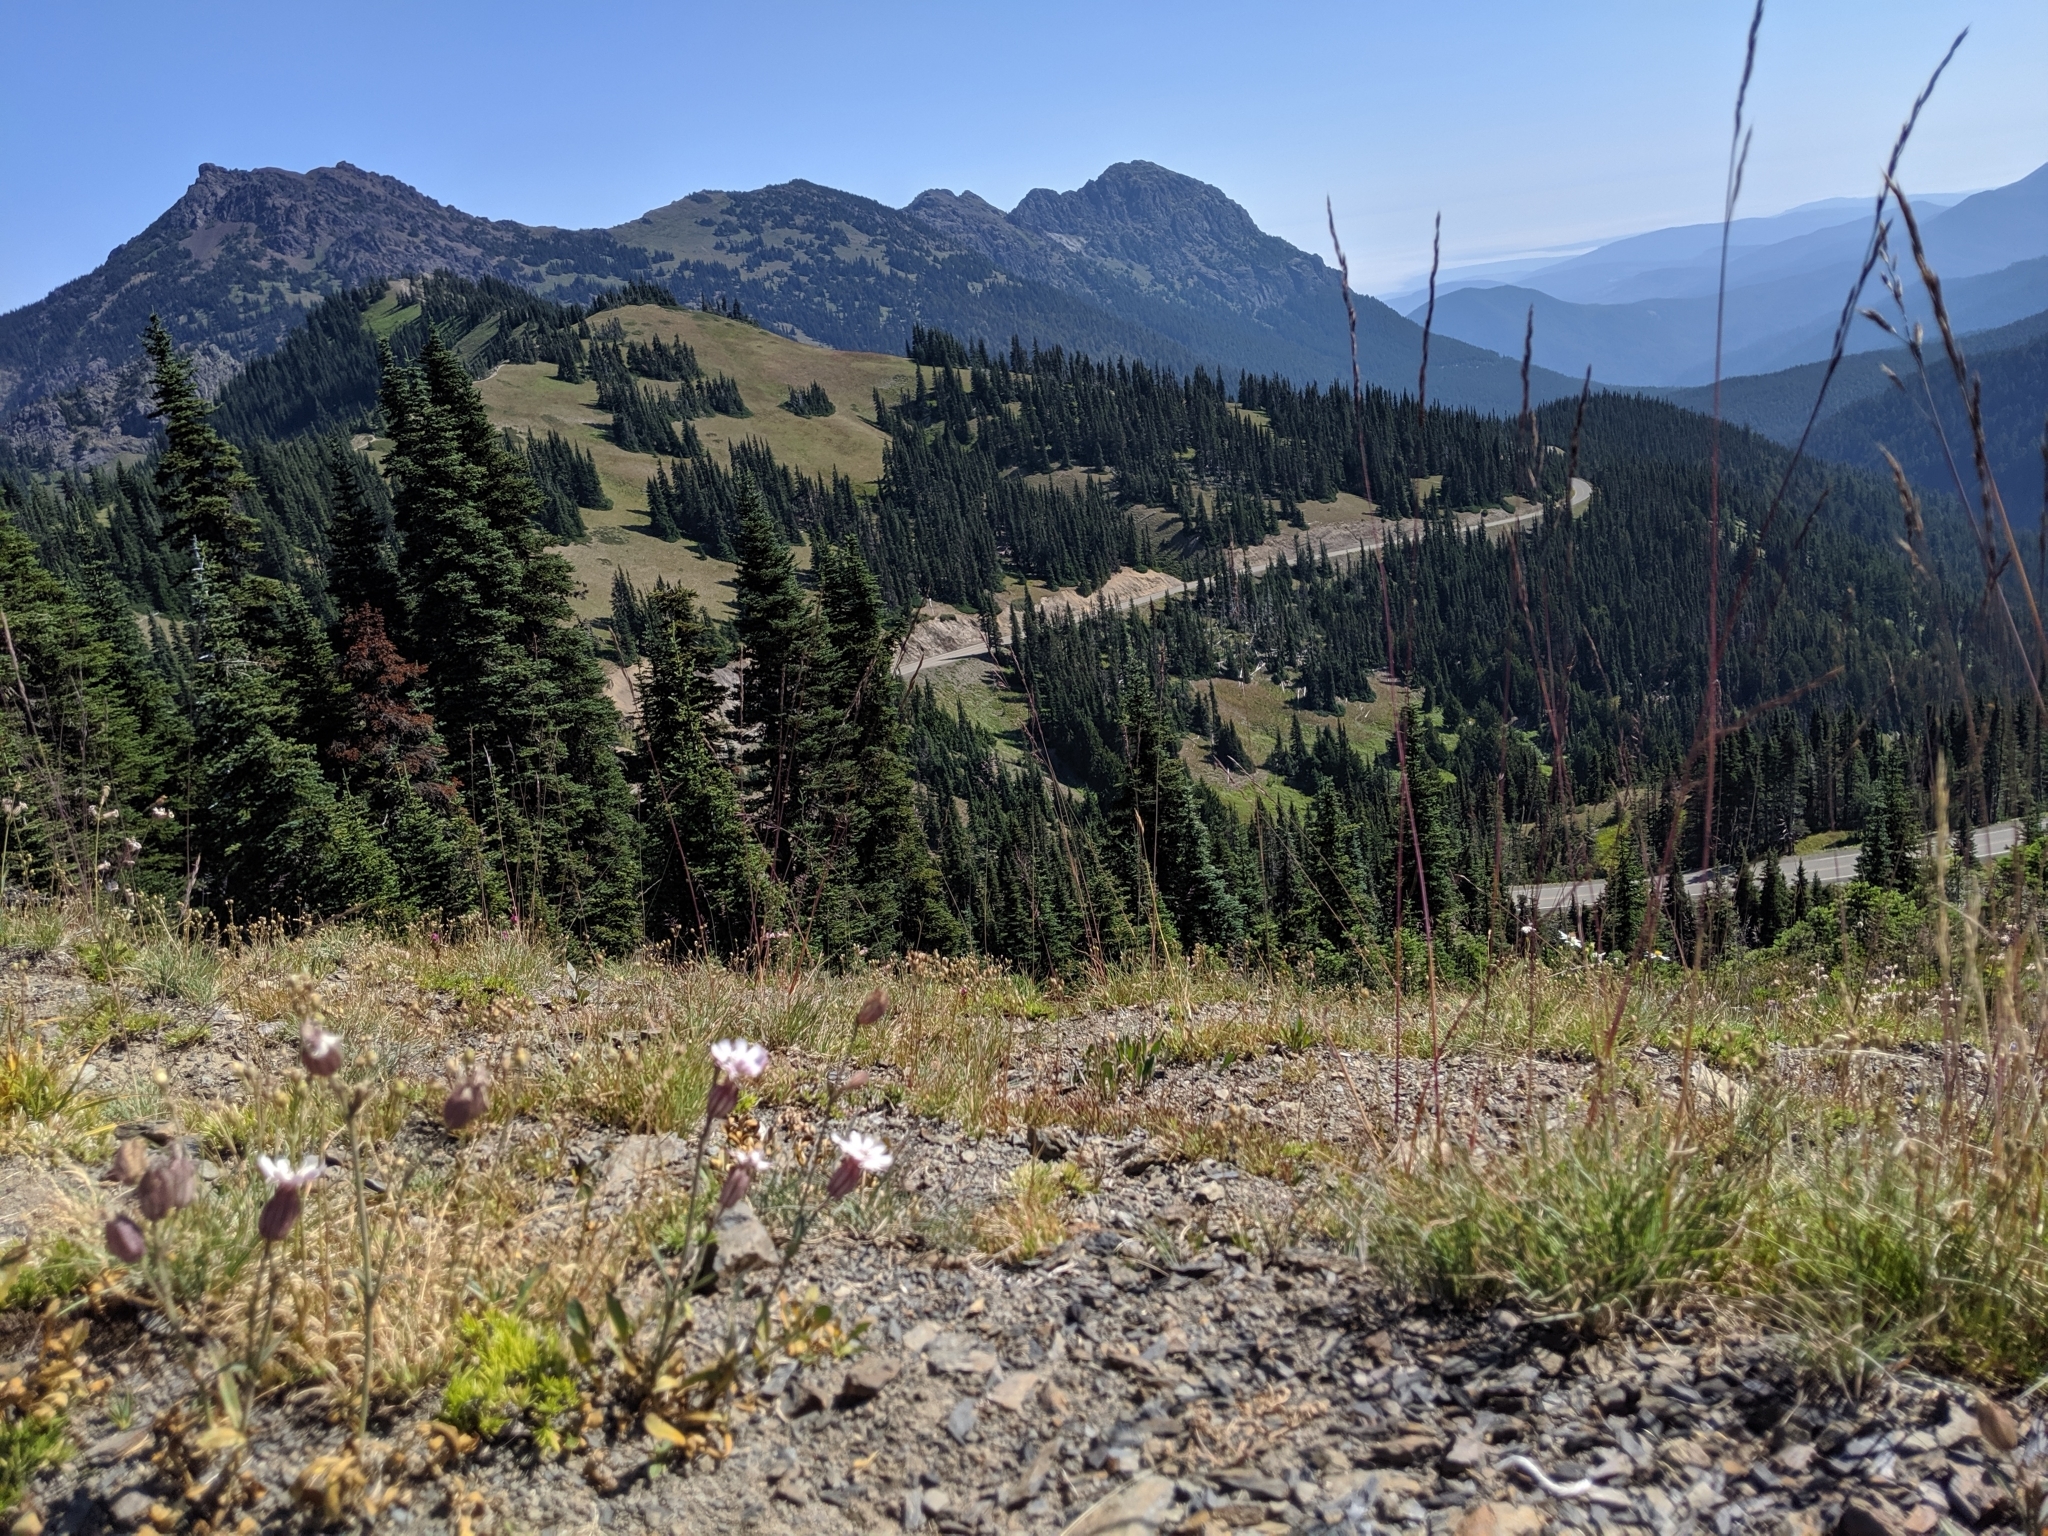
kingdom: Plantae
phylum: Tracheophyta
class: Magnoliopsida
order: Caryophyllales
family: Caryophyllaceae
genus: Silene
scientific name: Silene parryi
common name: Parry's campion
